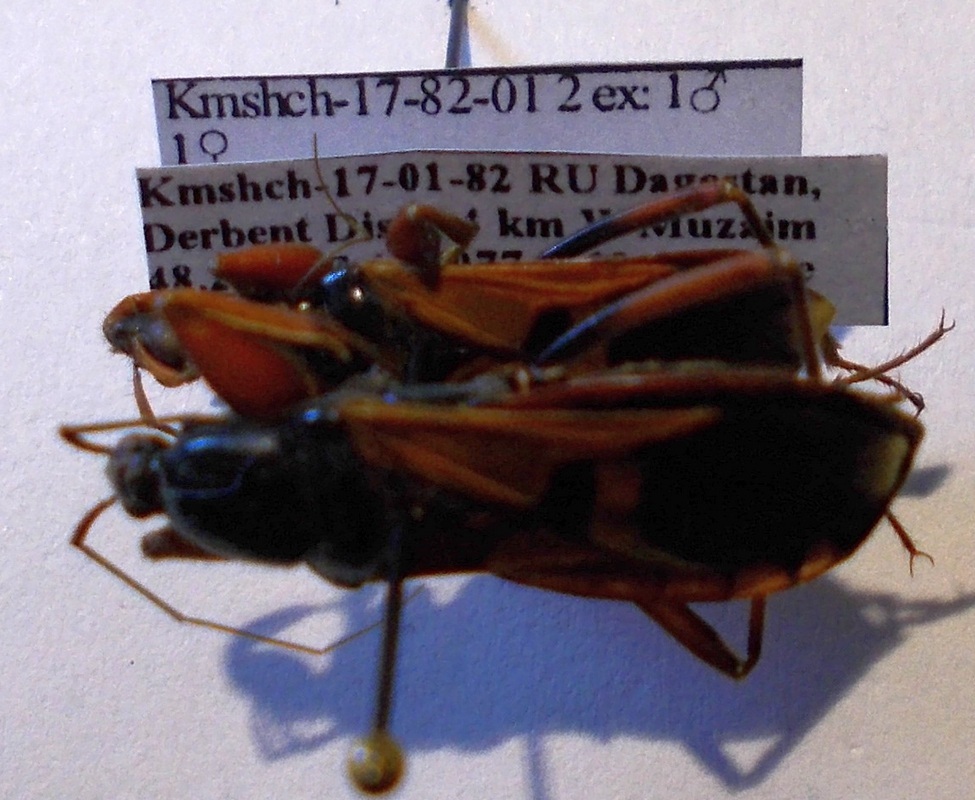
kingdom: Animalia
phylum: Arthropoda
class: Insecta
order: Hemiptera
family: Reduviidae
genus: Ectomocoris
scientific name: Ectomocoris ululans
